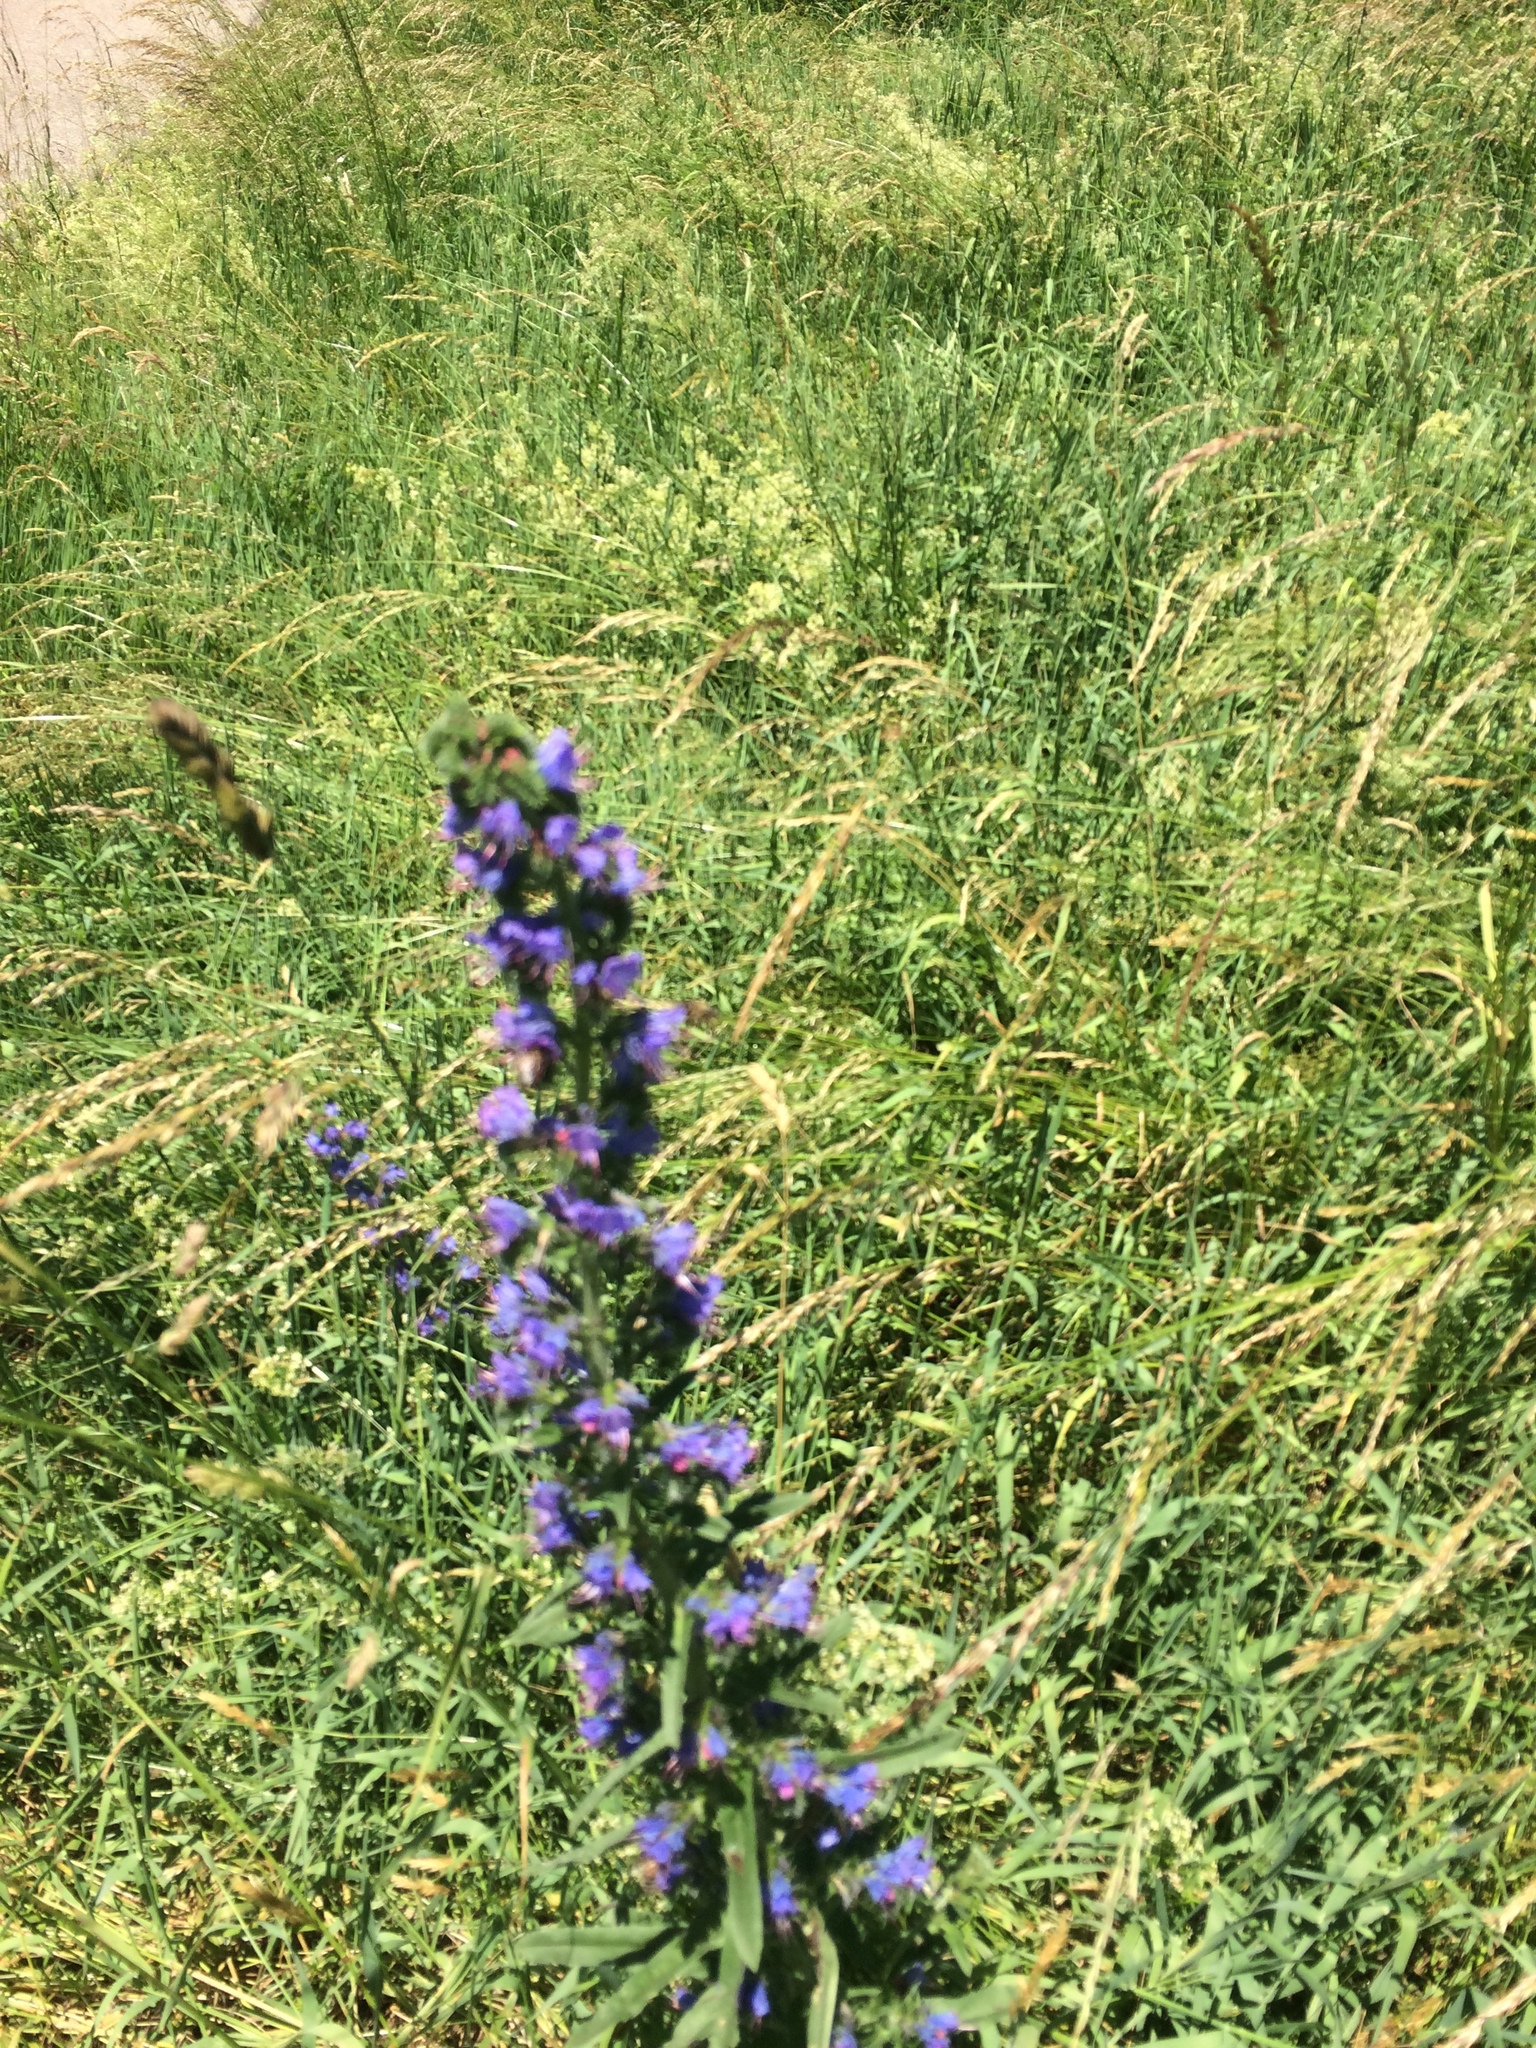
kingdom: Plantae
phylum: Tracheophyta
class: Magnoliopsida
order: Boraginales
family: Boraginaceae
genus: Echium
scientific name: Echium vulgare
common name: Common viper's bugloss
